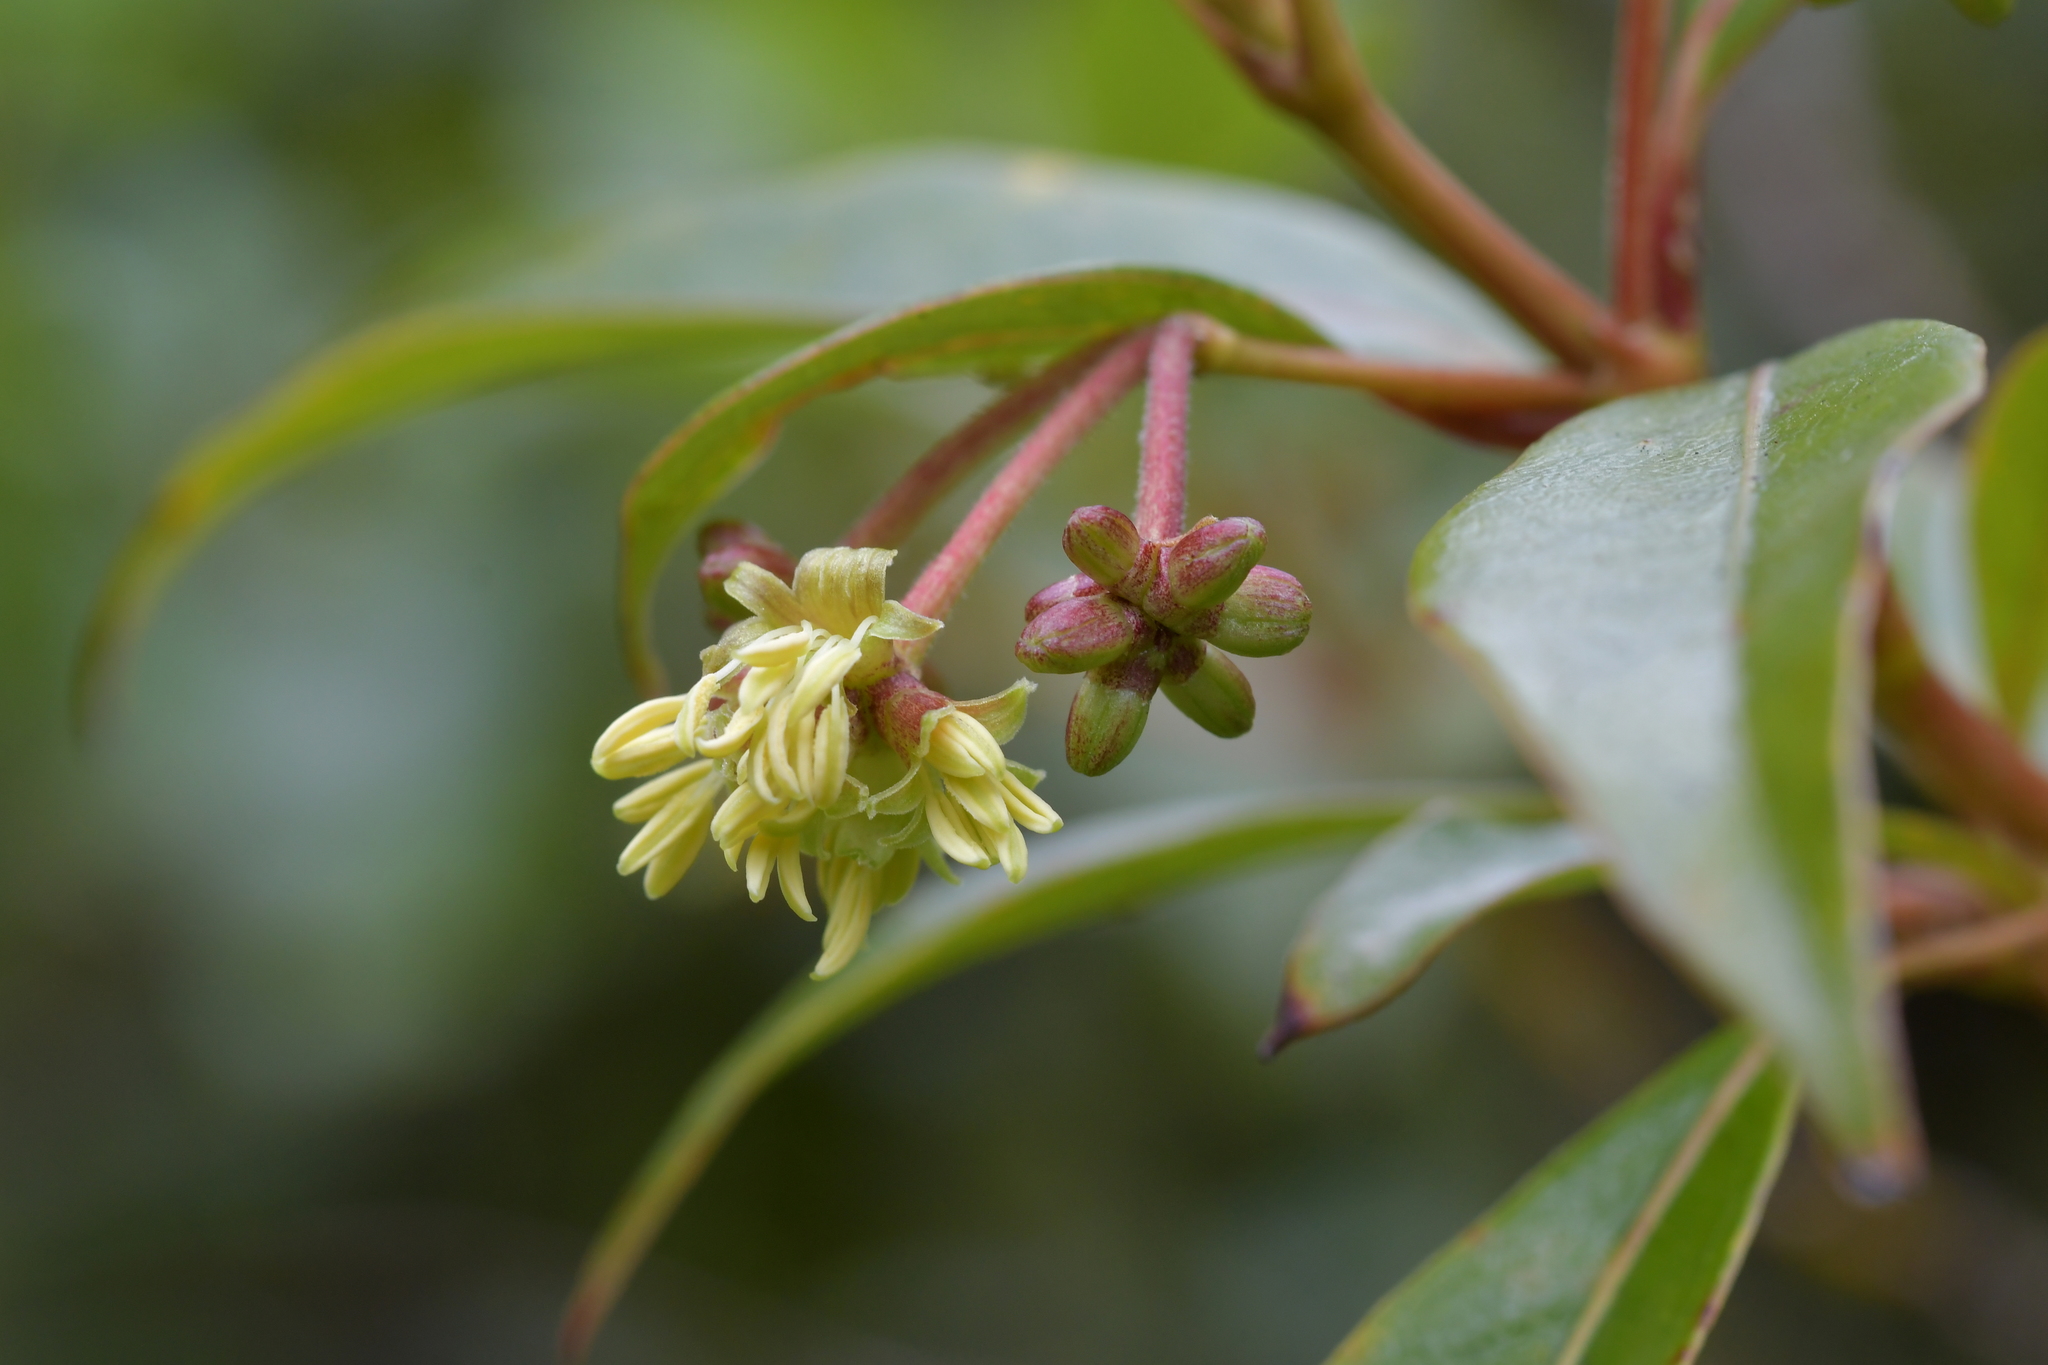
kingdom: Plantae
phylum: Tracheophyta
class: Magnoliopsida
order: Gentianales
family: Rubiaceae
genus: Coprosma
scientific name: Coprosma lucida
